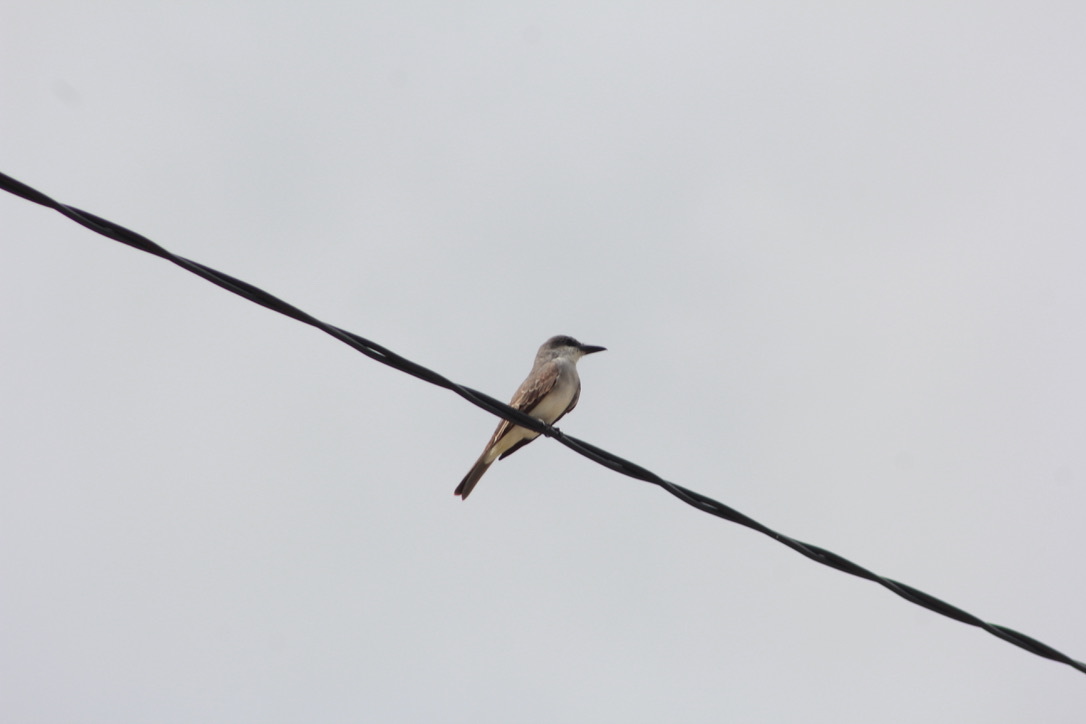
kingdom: Animalia
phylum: Chordata
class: Aves
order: Passeriformes
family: Tyrannidae
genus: Tyrannus
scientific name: Tyrannus dominicensis
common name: Gray kingbird
